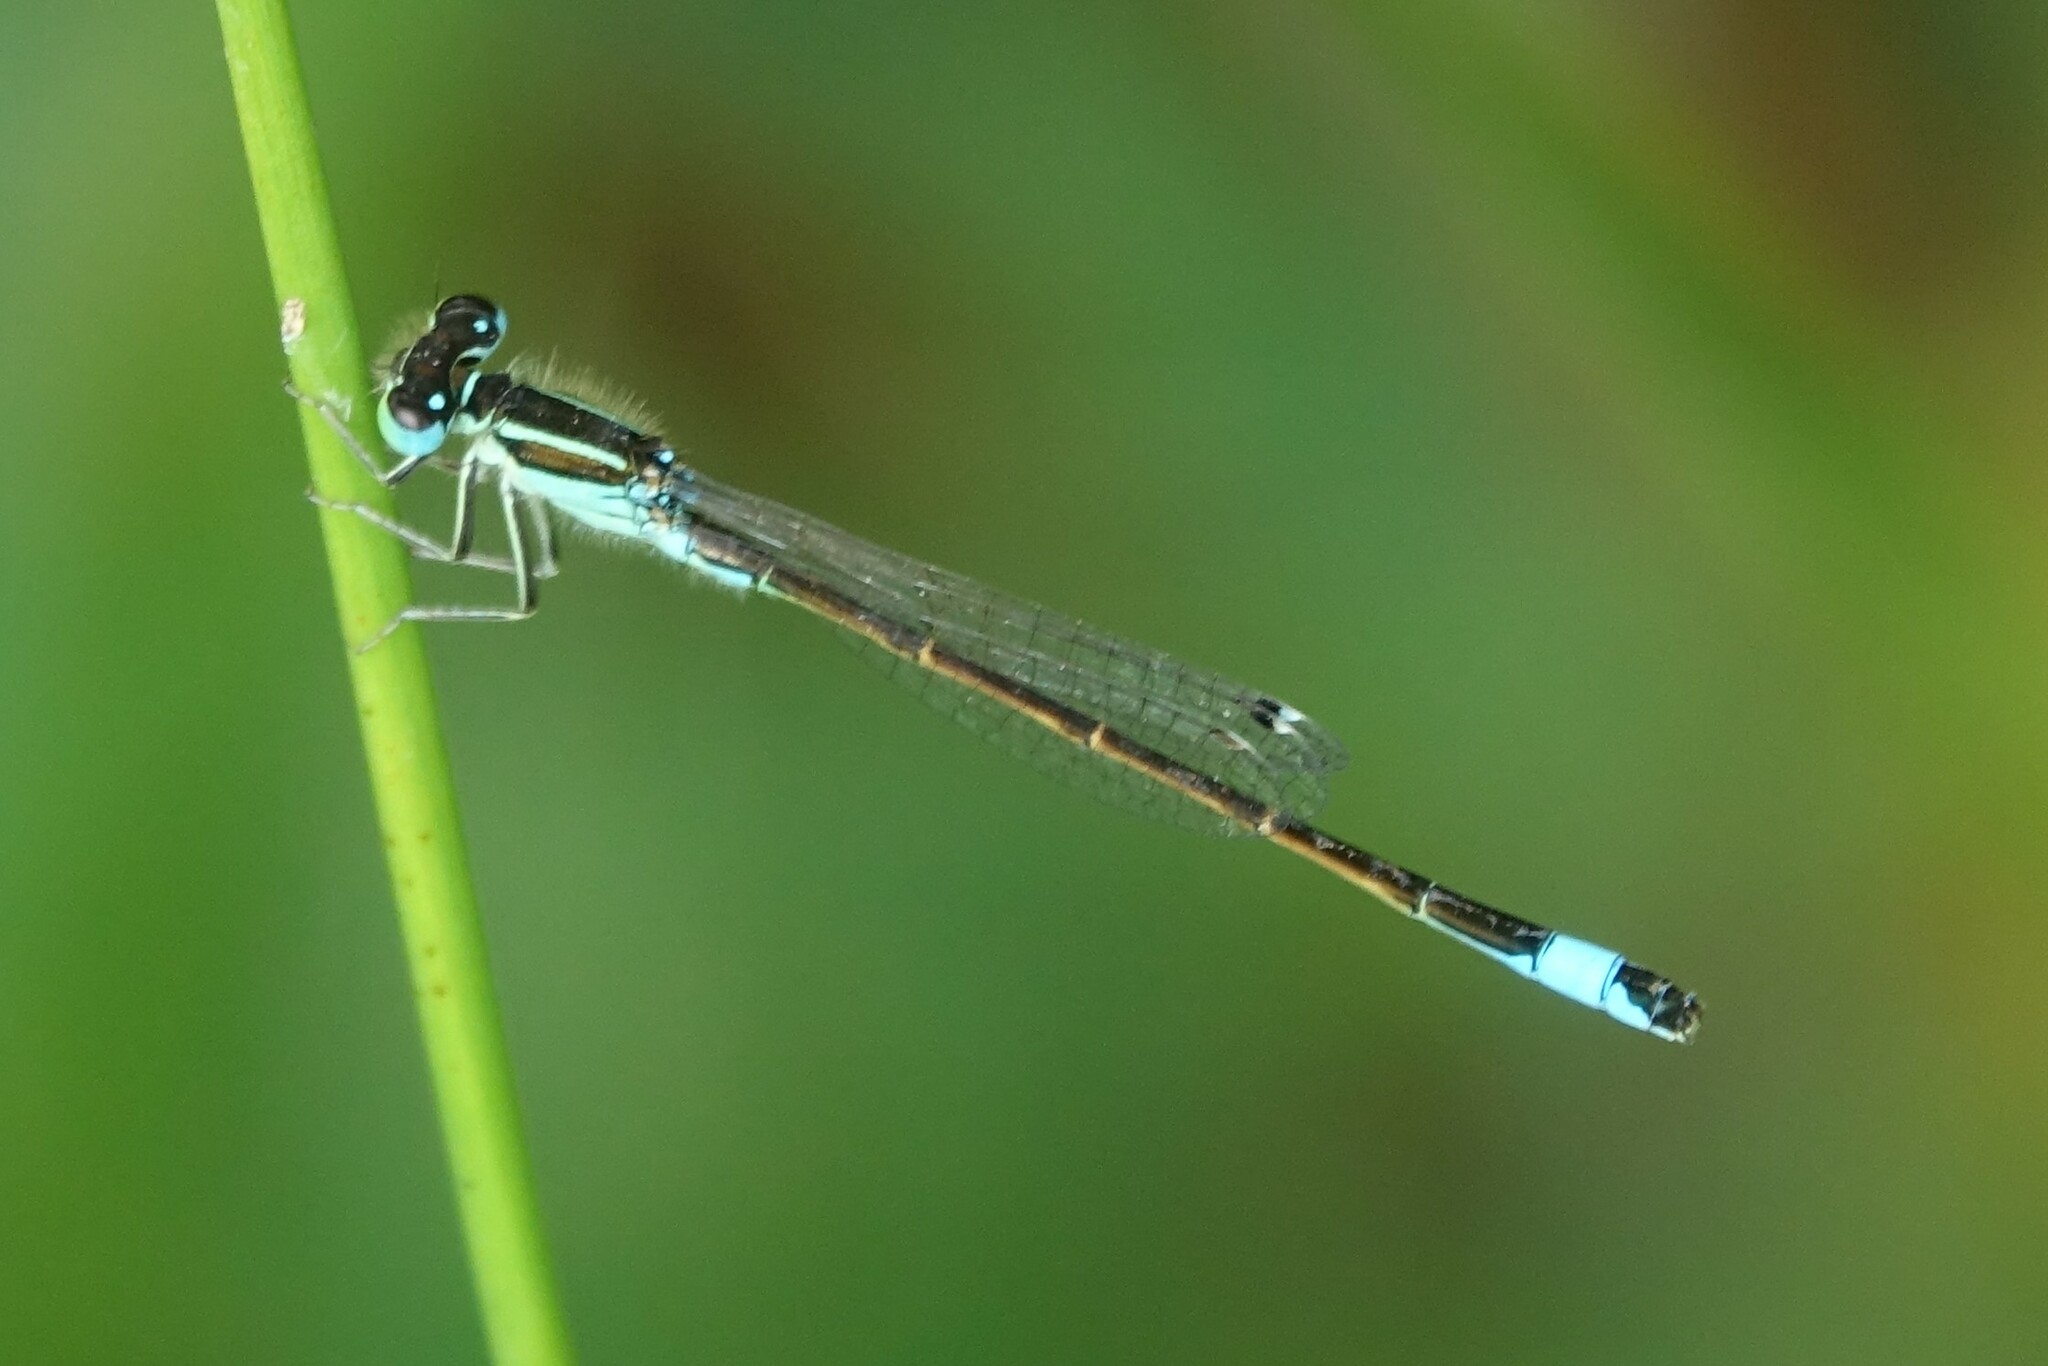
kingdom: Animalia
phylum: Arthropoda
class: Insecta
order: Odonata
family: Coenagrionidae
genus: Ischnura
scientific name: Ischnura graellsii
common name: Iberian bluetail
